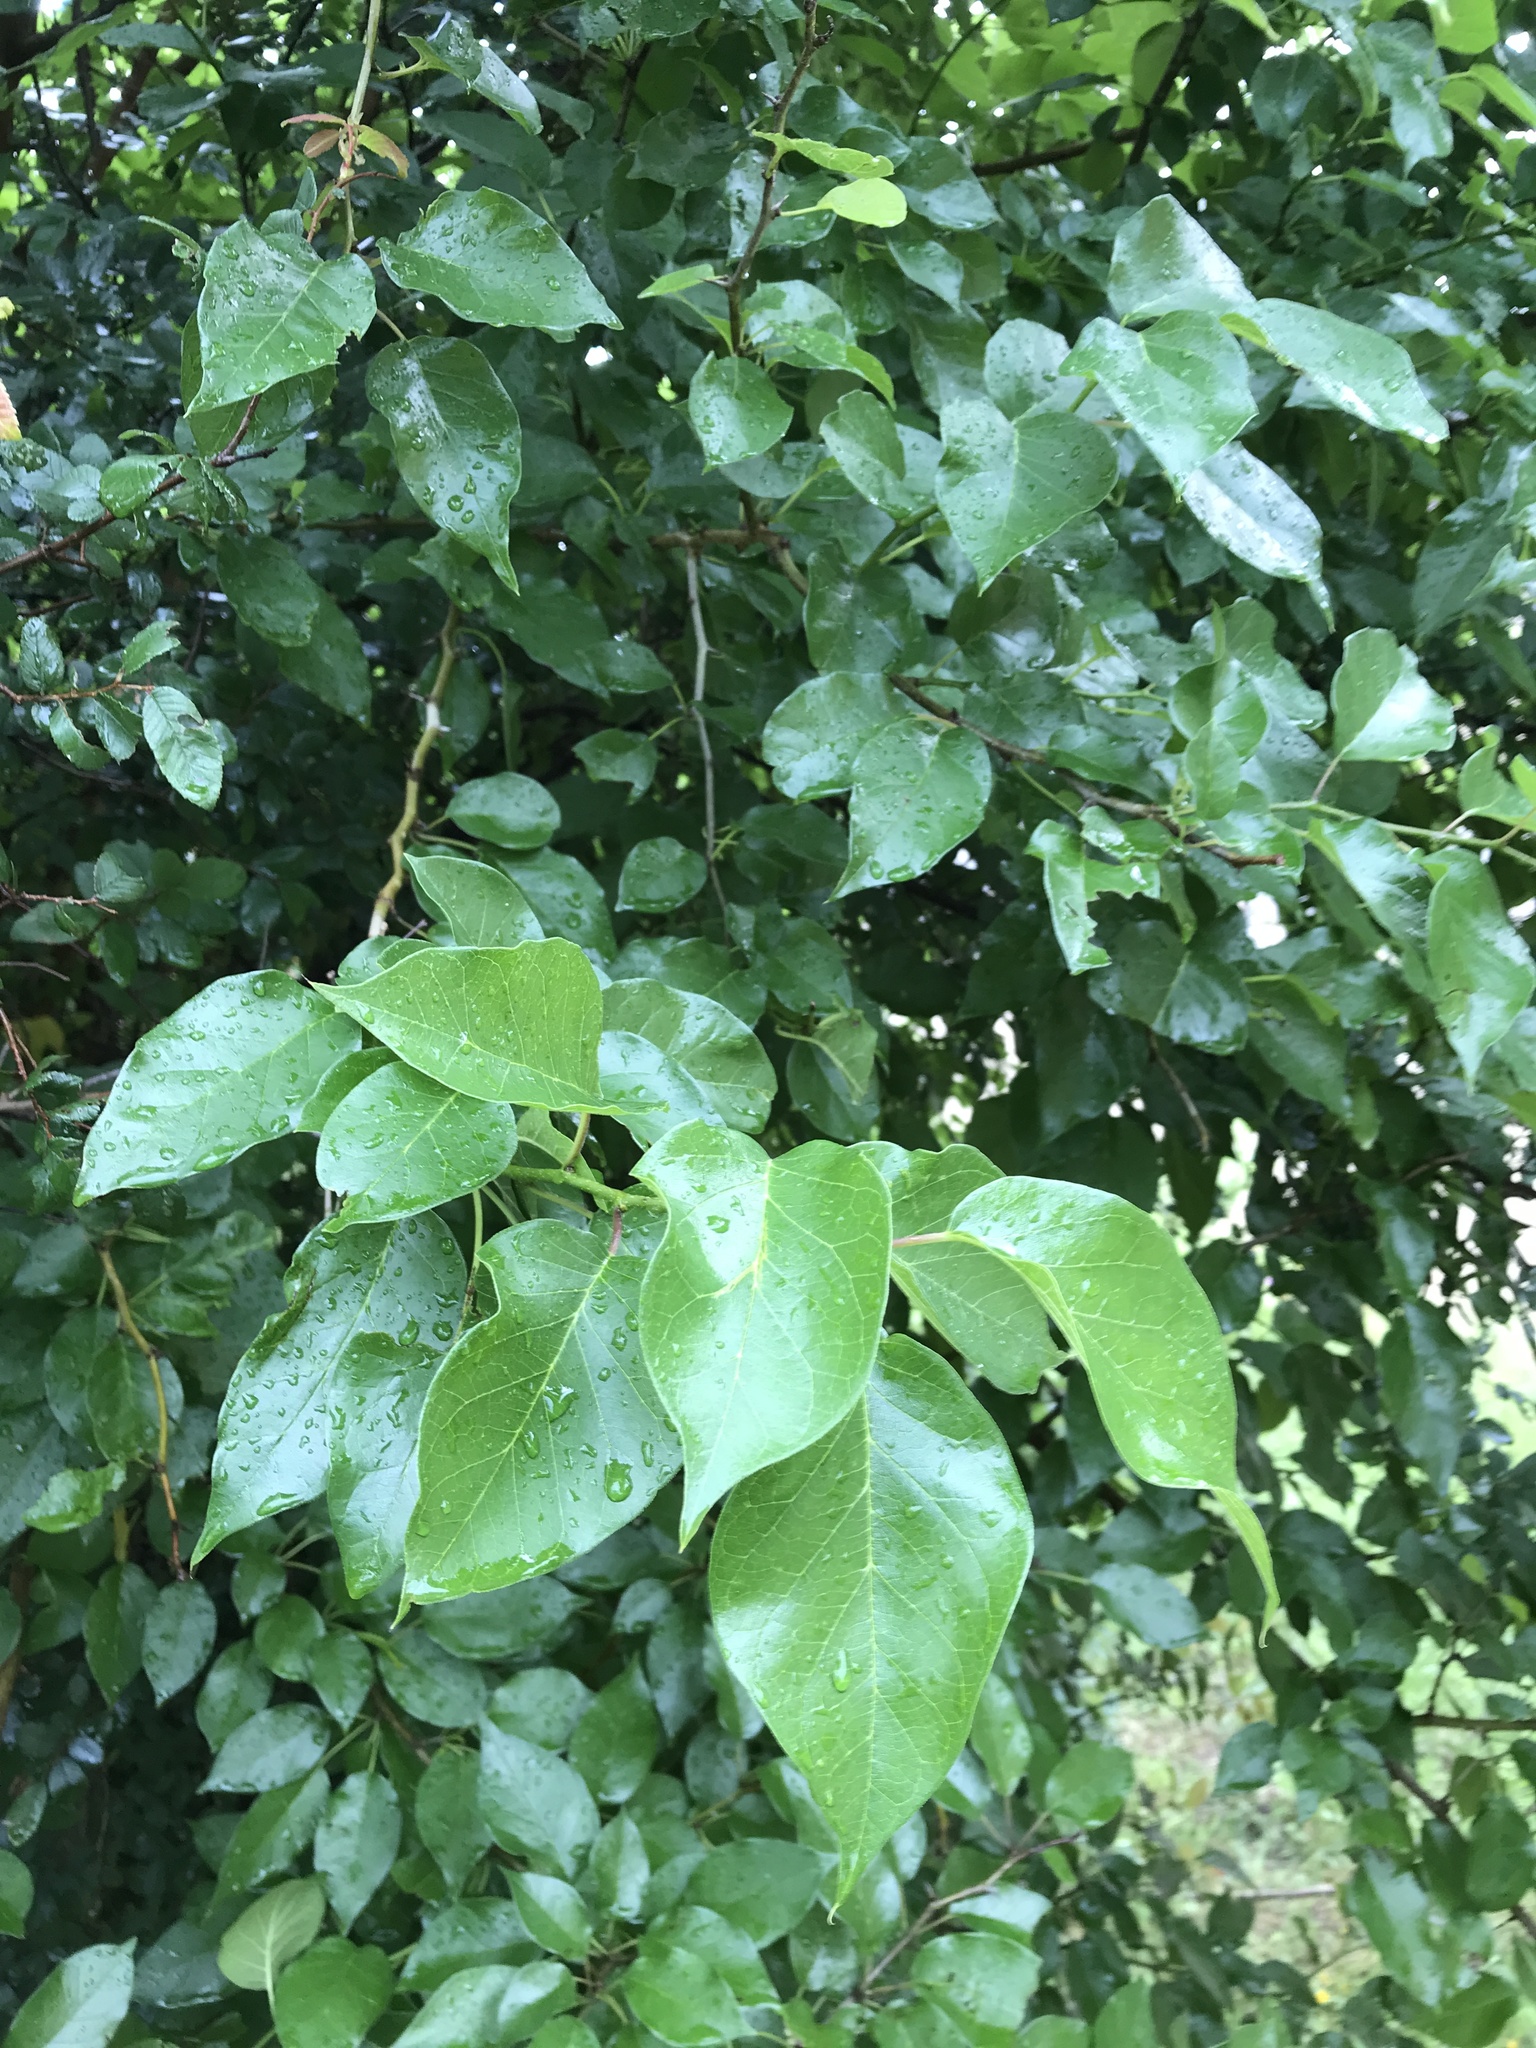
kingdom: Plantae
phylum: Tracheophyta
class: Magnoliopsida
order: Rosales
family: Moraceae
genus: Maclura
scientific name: Maclura pomifera
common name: Osage-orange
